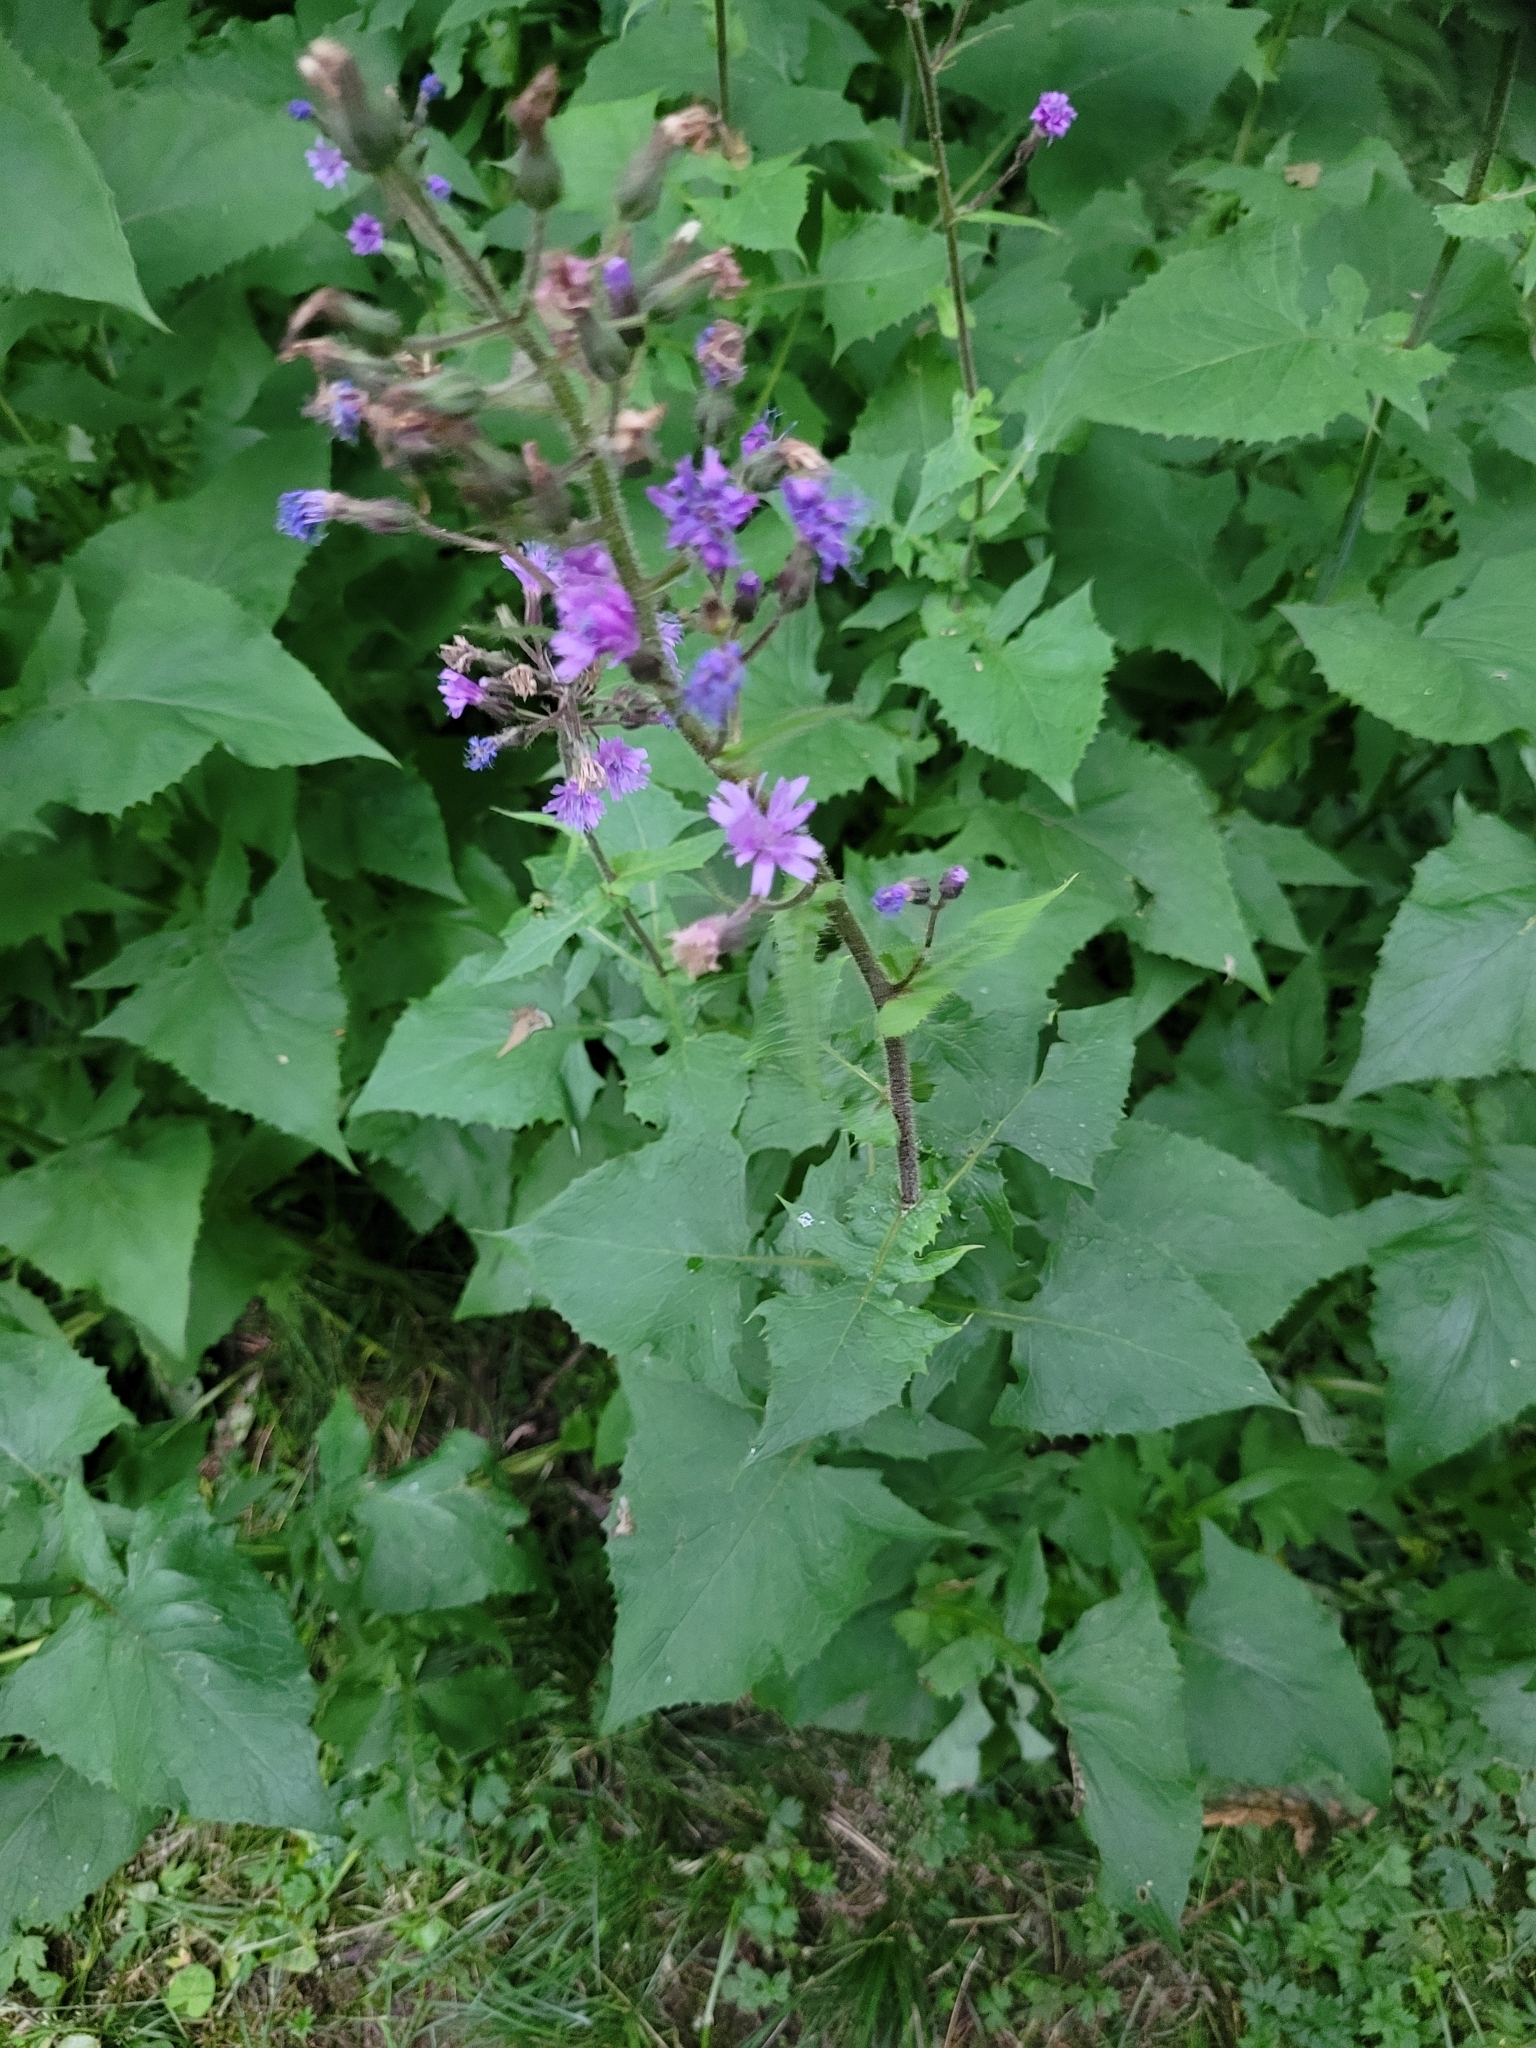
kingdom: Plantae
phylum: Tracheophyta
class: Magnoliopsida
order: Asterales
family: Asteraceae
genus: Cicerbita
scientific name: Cicerbita alpina
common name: Alpine blue-sow-thistle
